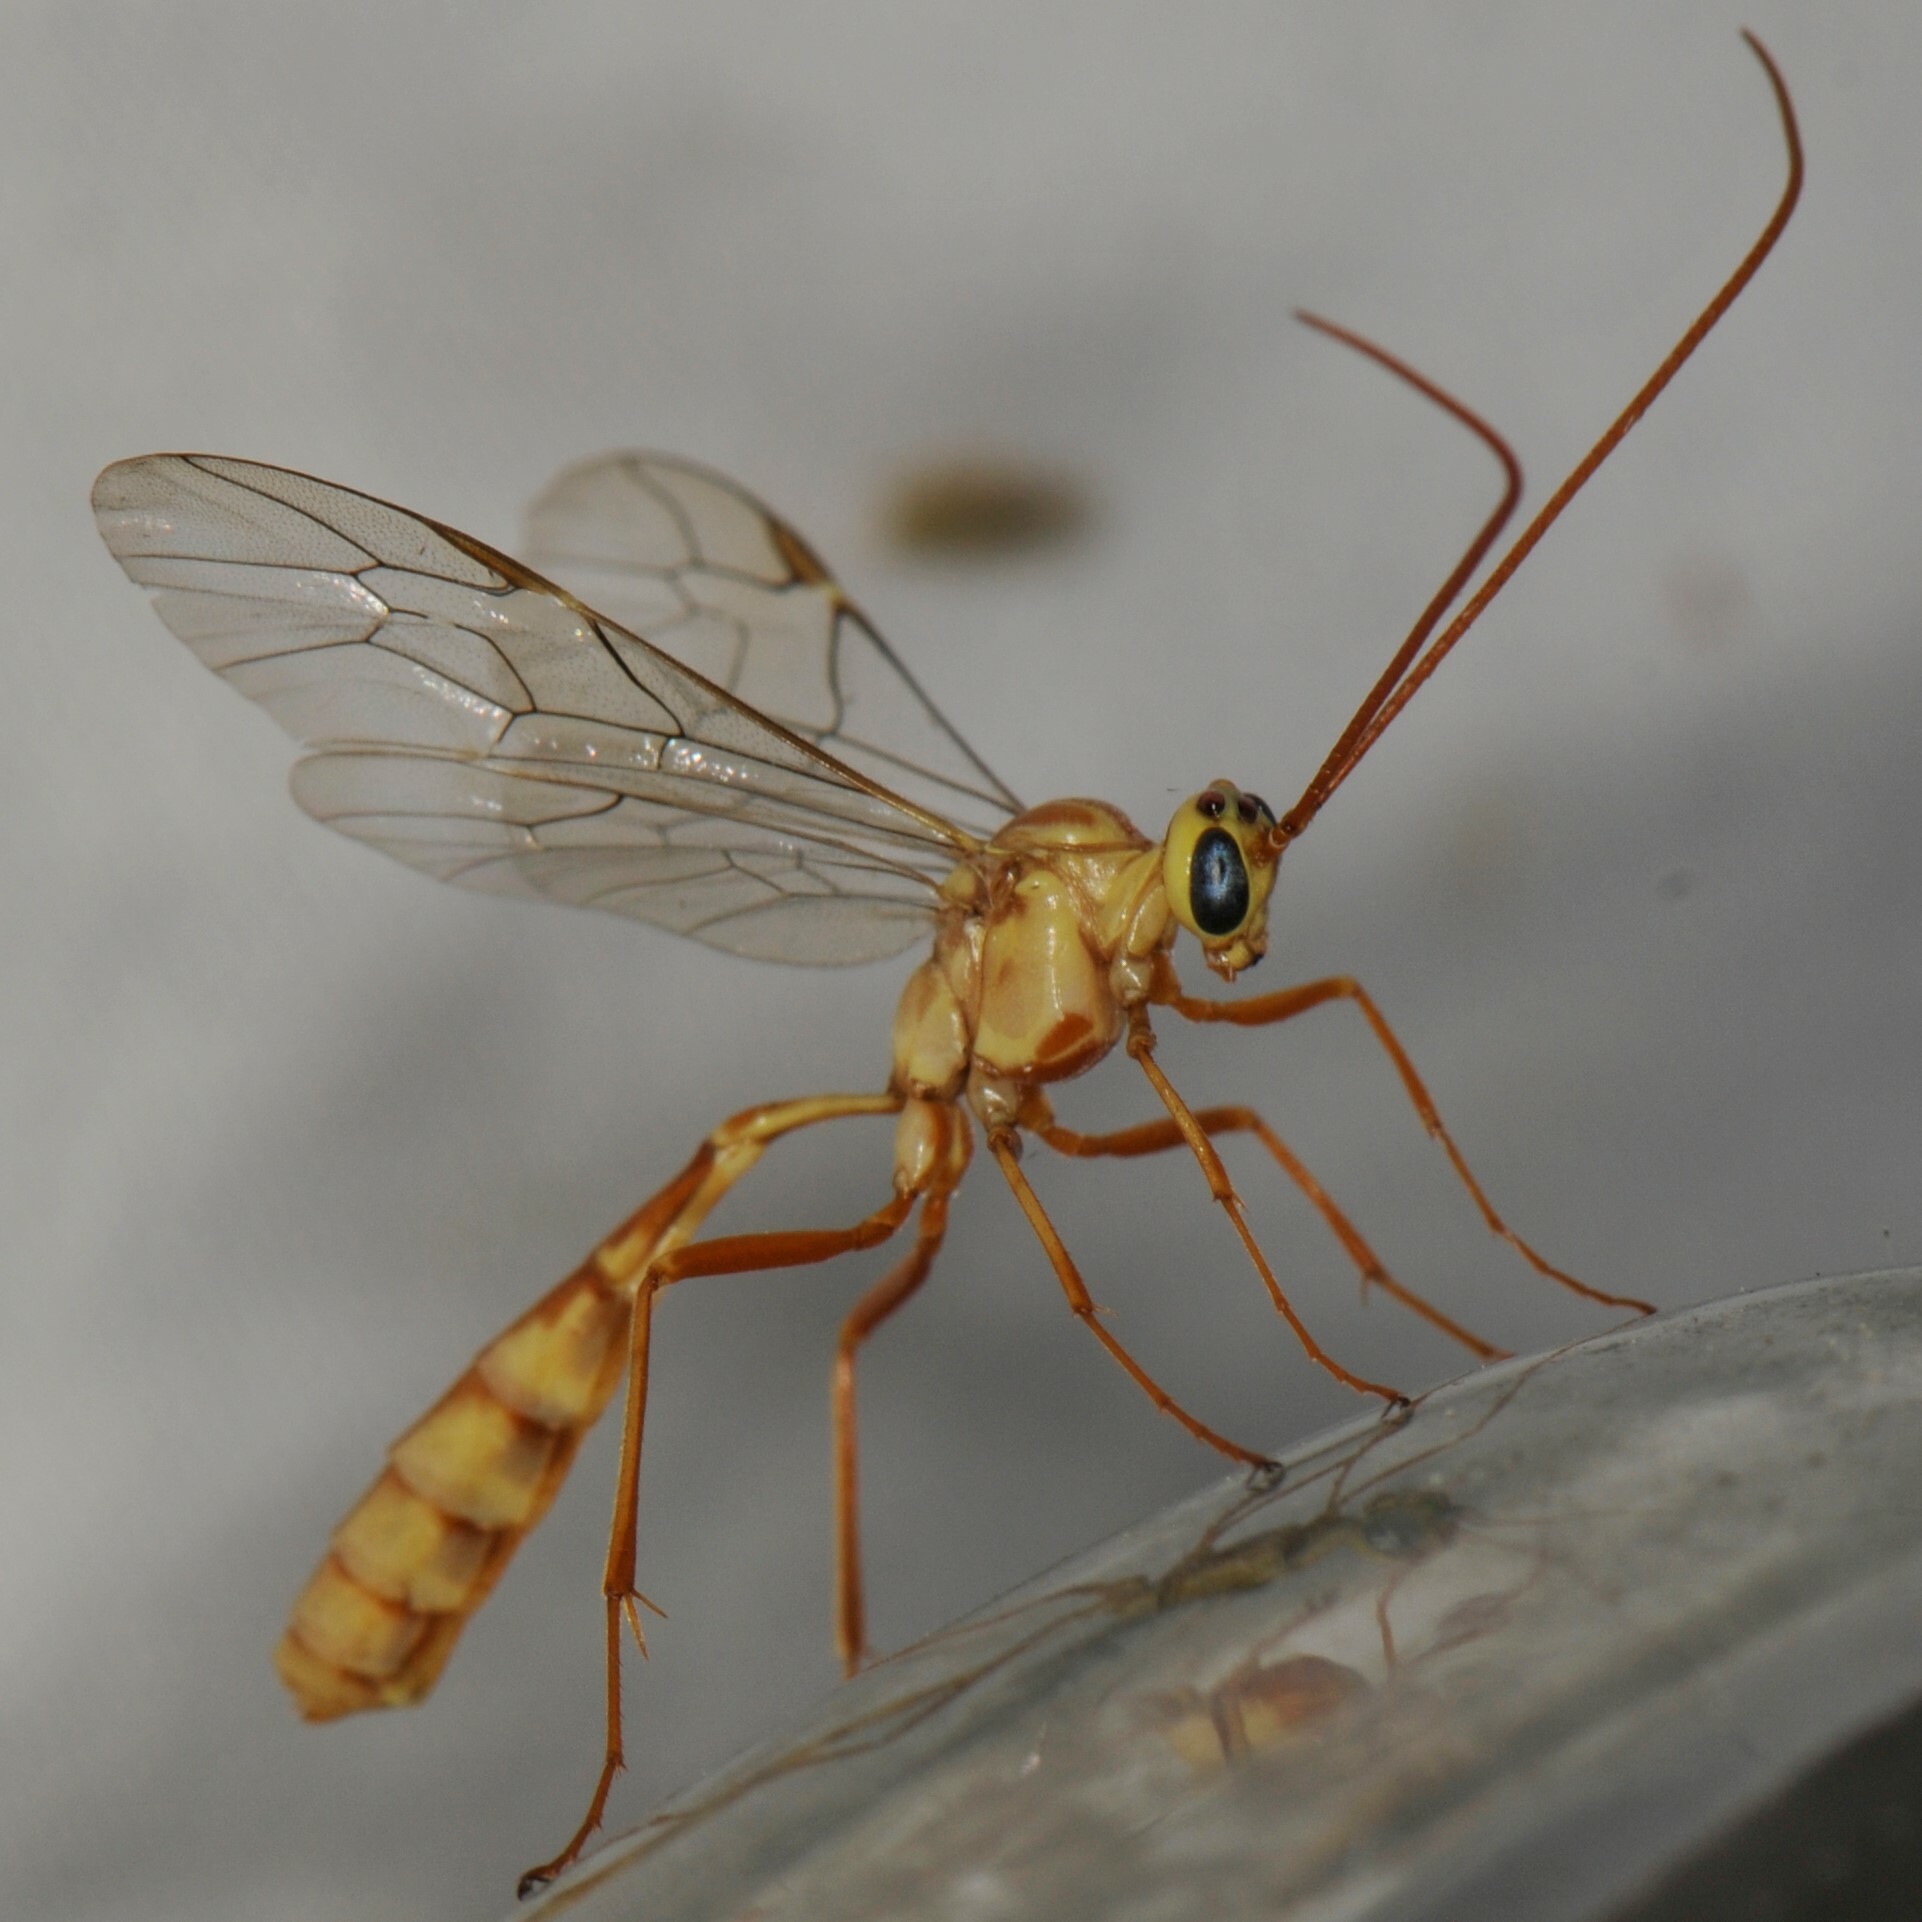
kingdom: Animalia
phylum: Arthropoda
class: Insecta
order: Hymenoptera
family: Ichneumonidae
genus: Eremotylus
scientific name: Eremotylus
